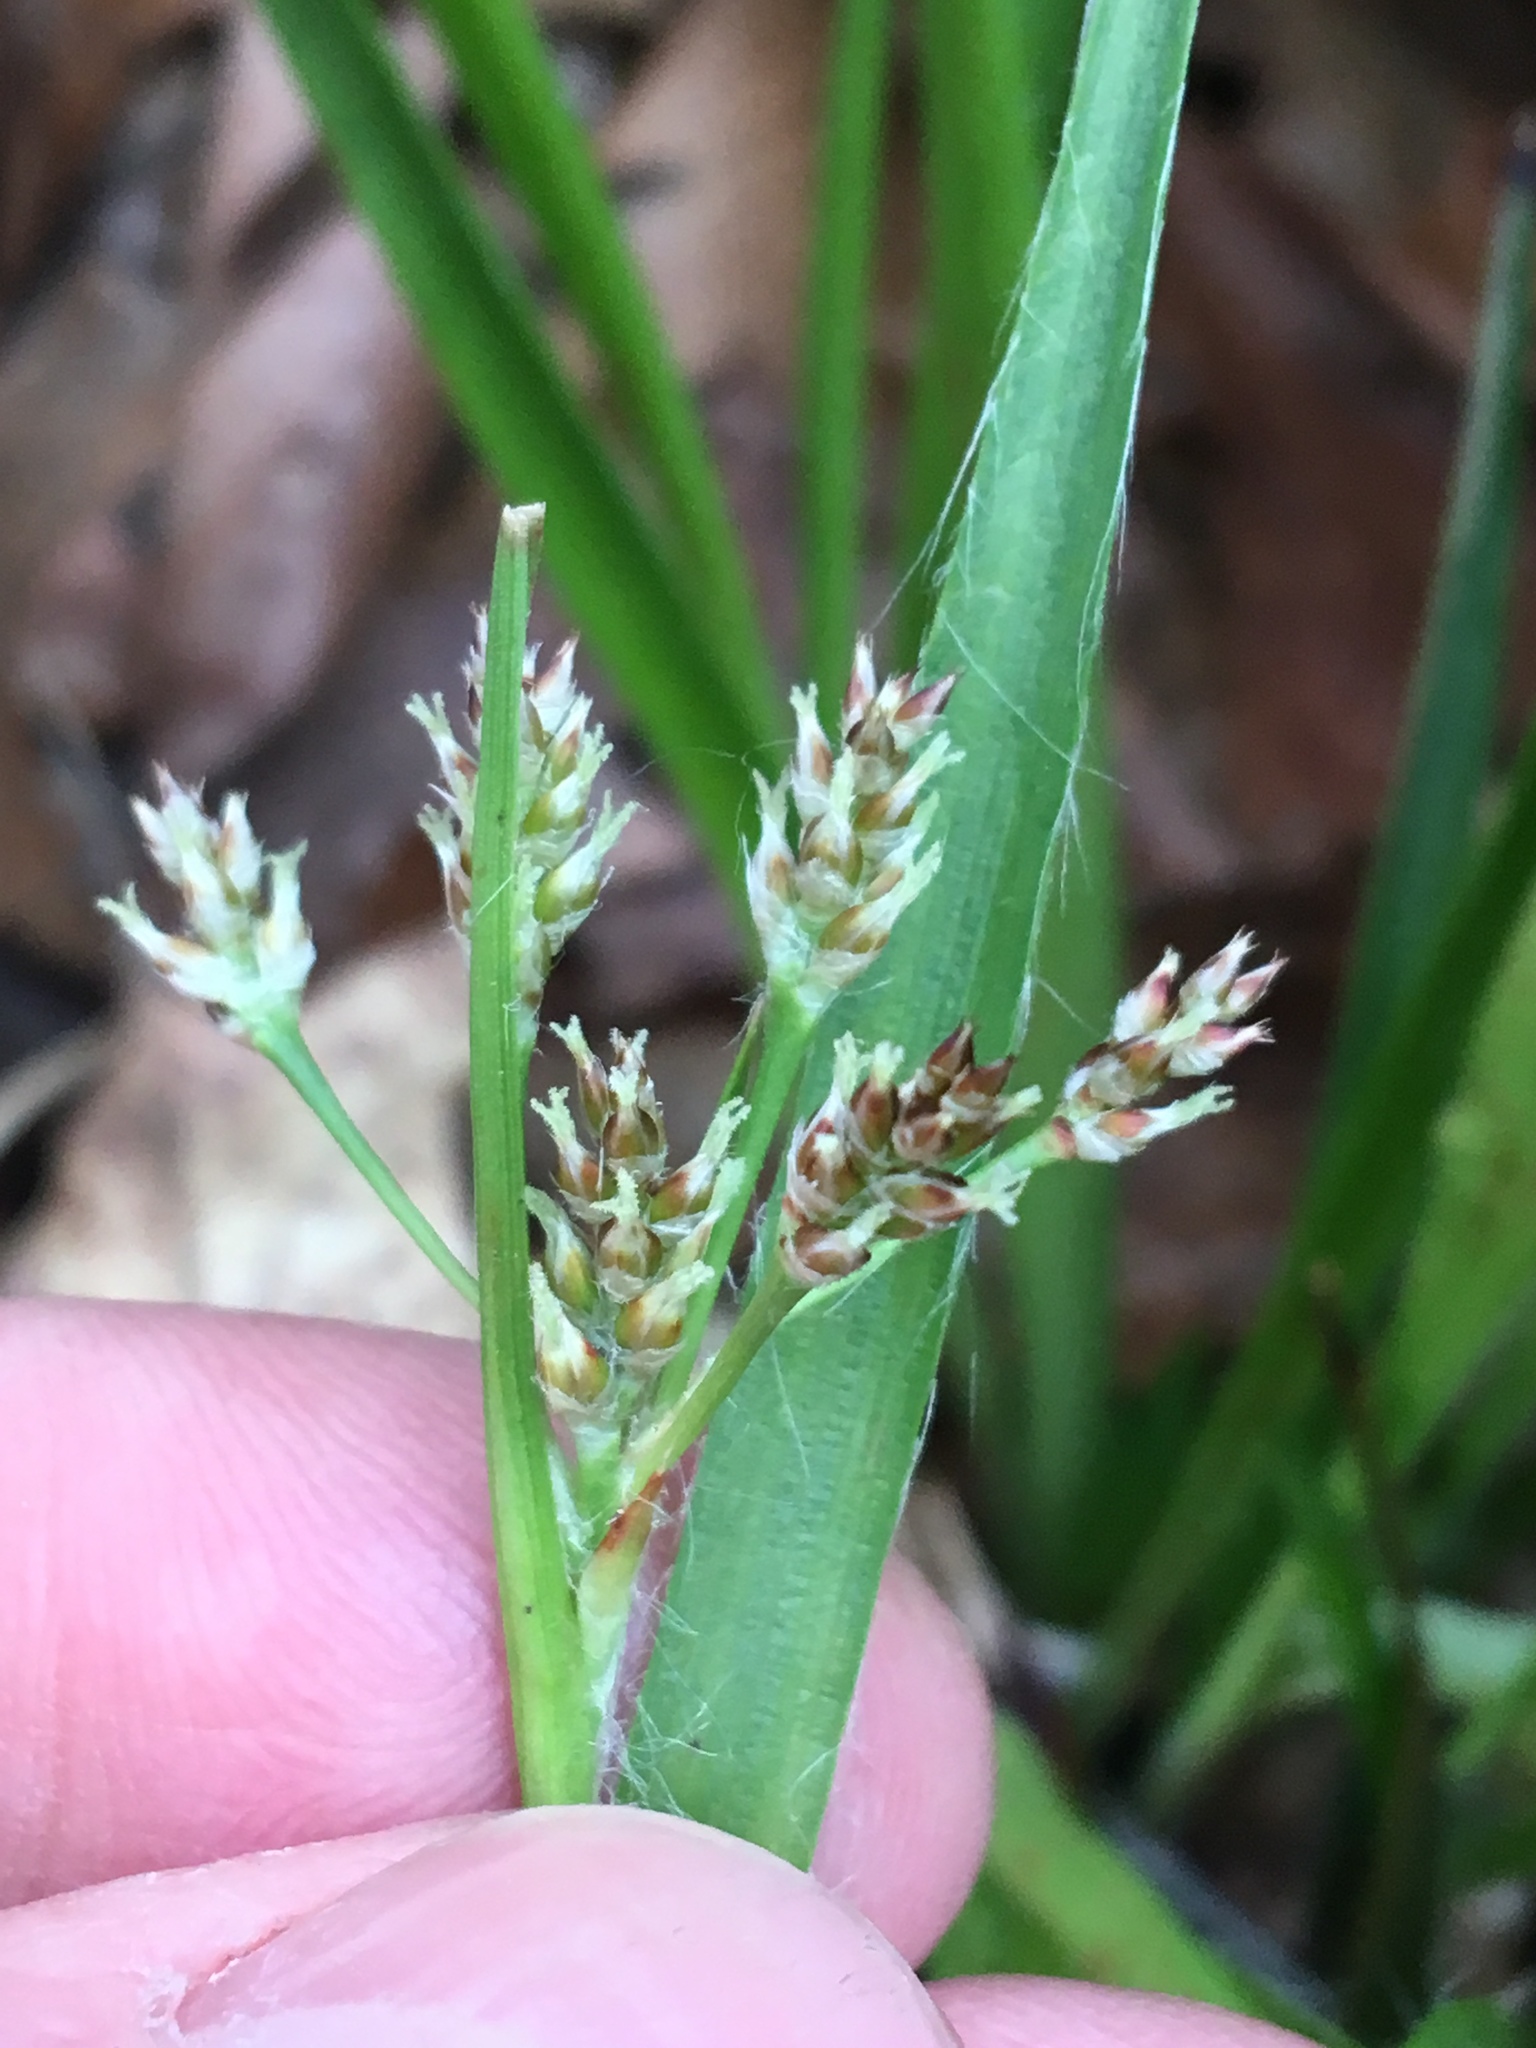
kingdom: Plantae
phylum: Tracheophyta
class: Liliopsida
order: Poales
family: Juncaceae
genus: Luzula
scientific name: Luzula multiflora
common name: Heath wood-rush
